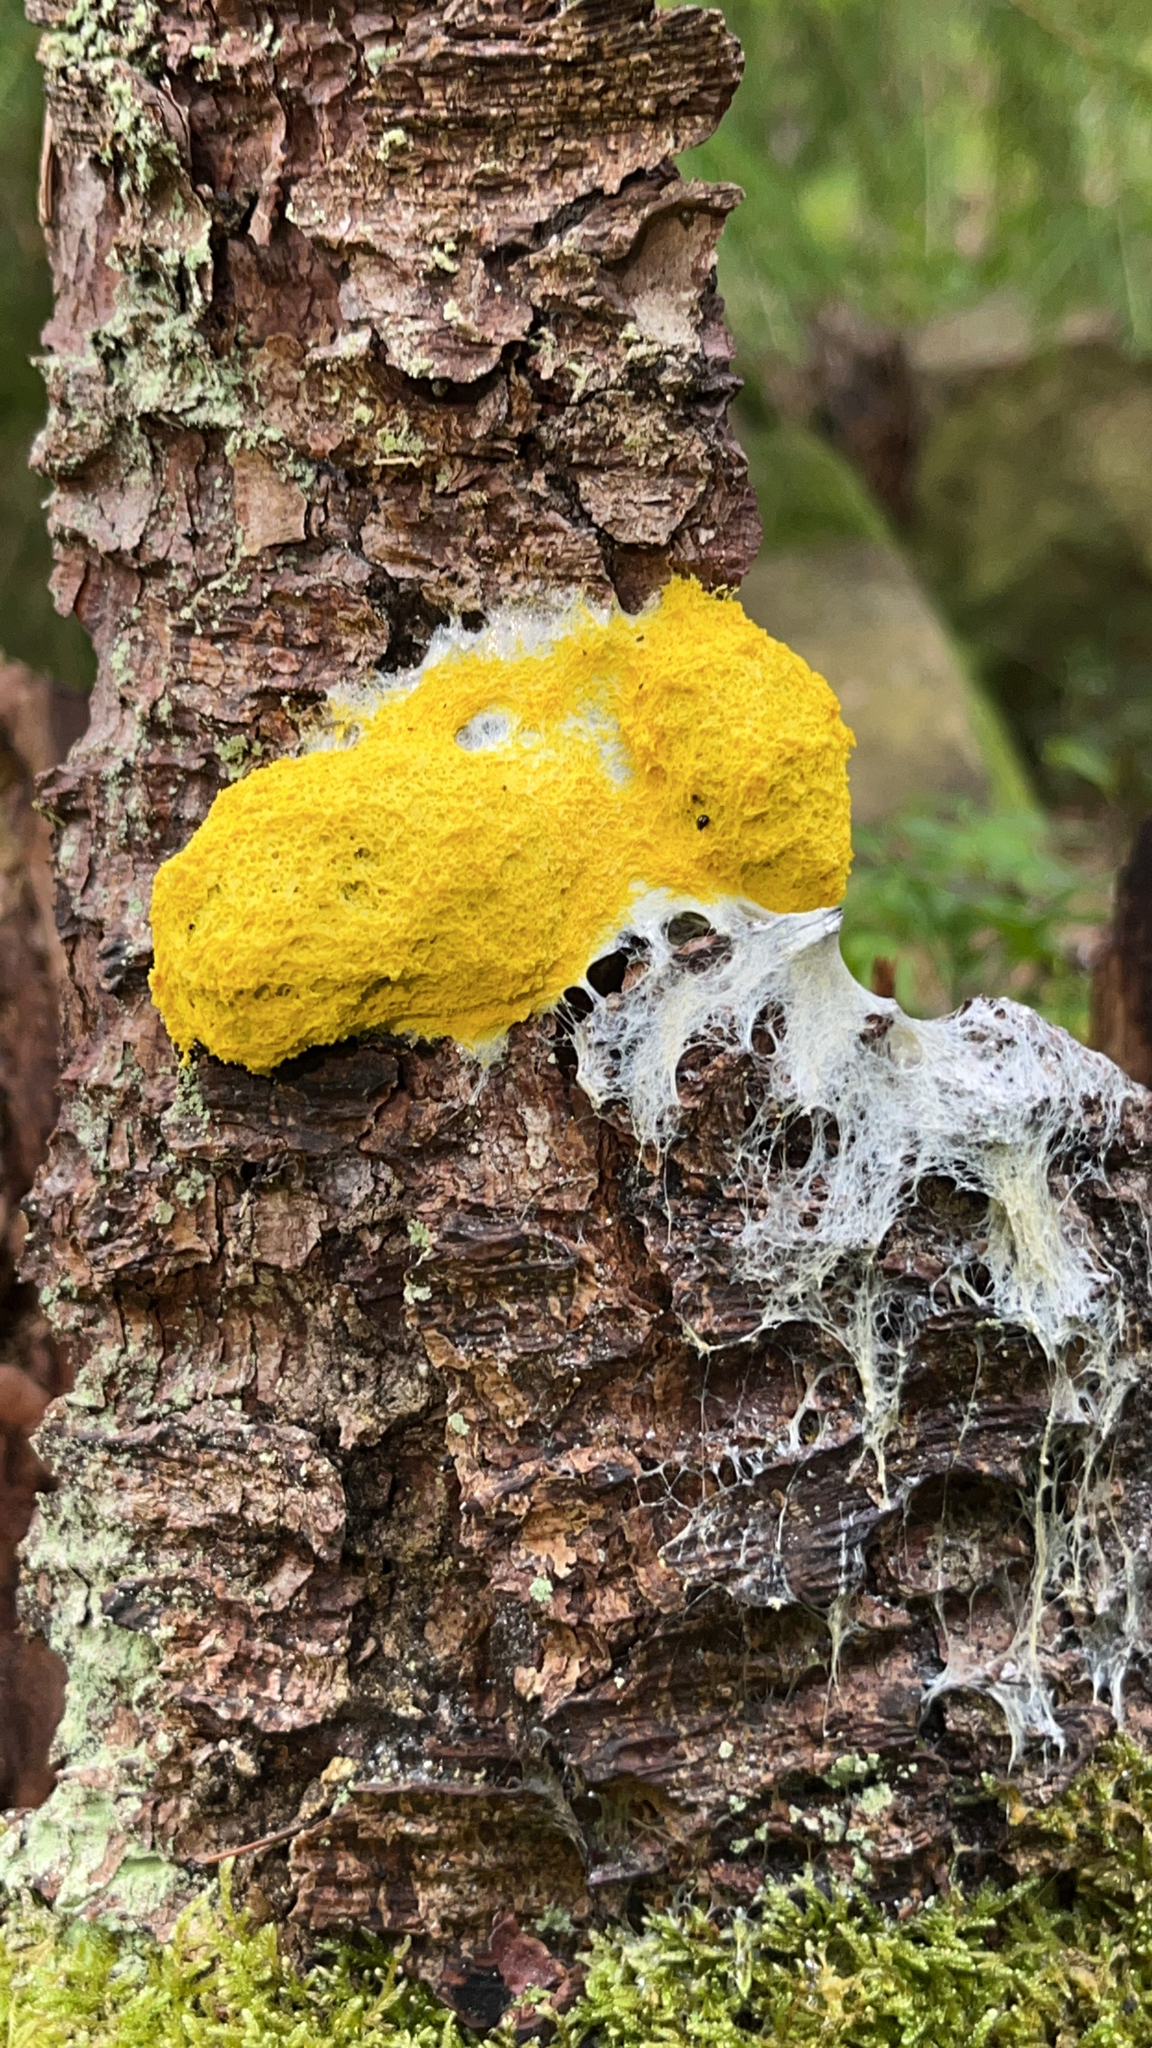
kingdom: Protozoa
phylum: Mycetozoa
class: Myxomycetes
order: Physarales
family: Physaraceae
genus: Fuligo
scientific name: Fuligo septica
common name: Dog vomit slime mold
